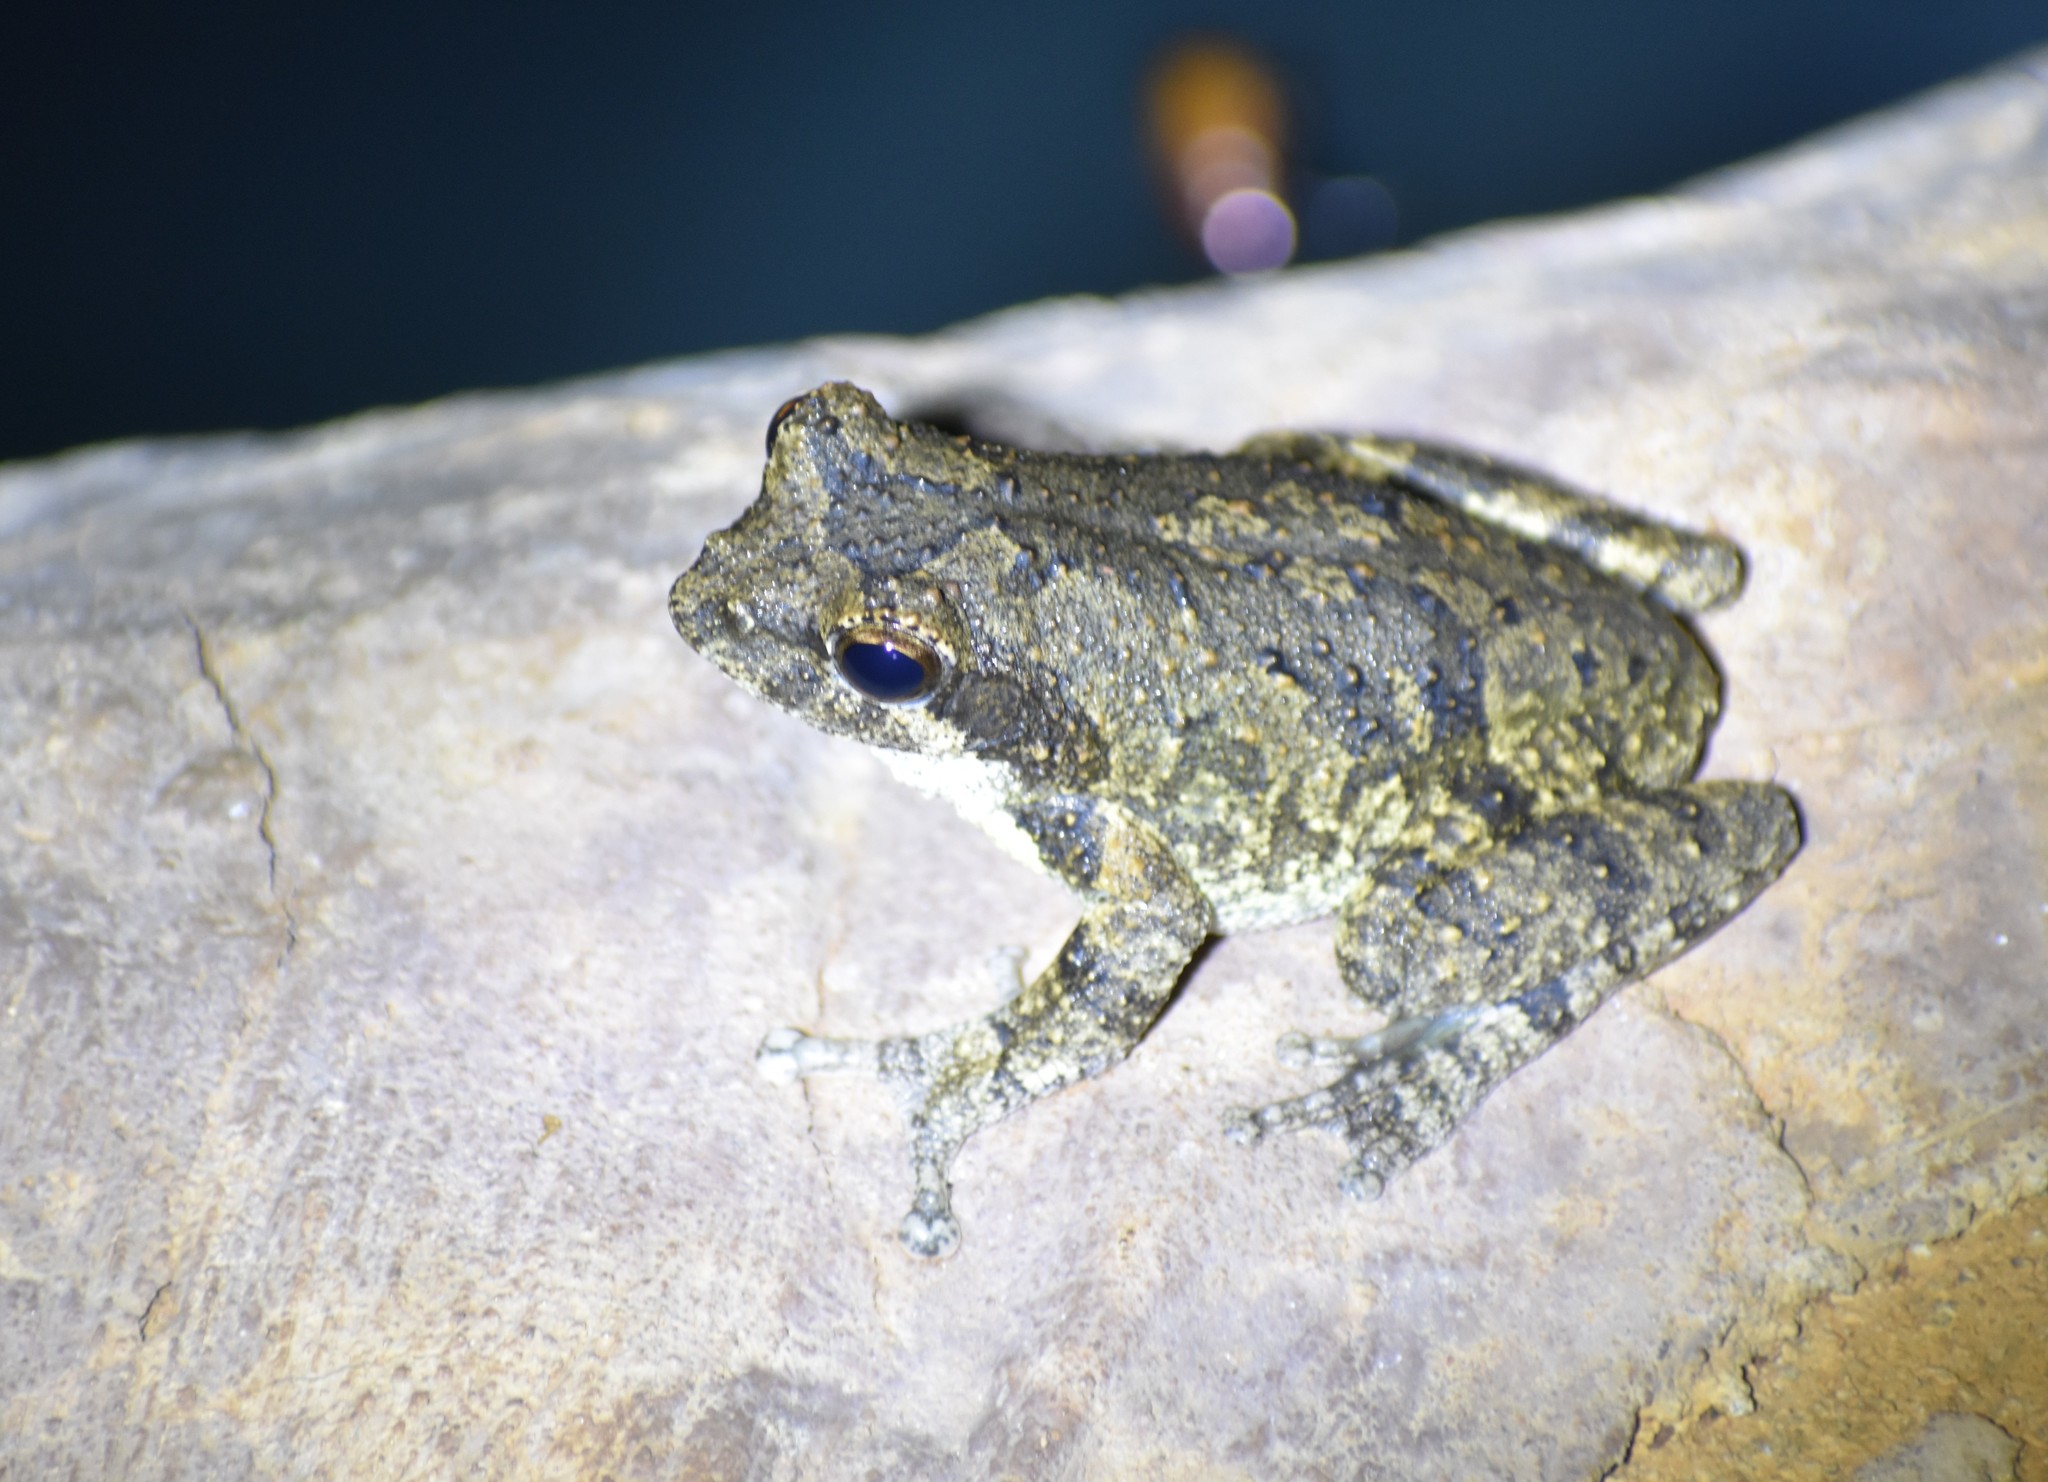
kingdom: Animalia
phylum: Chordata
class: Amphibia
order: Anura
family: Rhacophoridae
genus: Chiromantis
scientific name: Chiromantis xerampelina
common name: African gray treefrog
